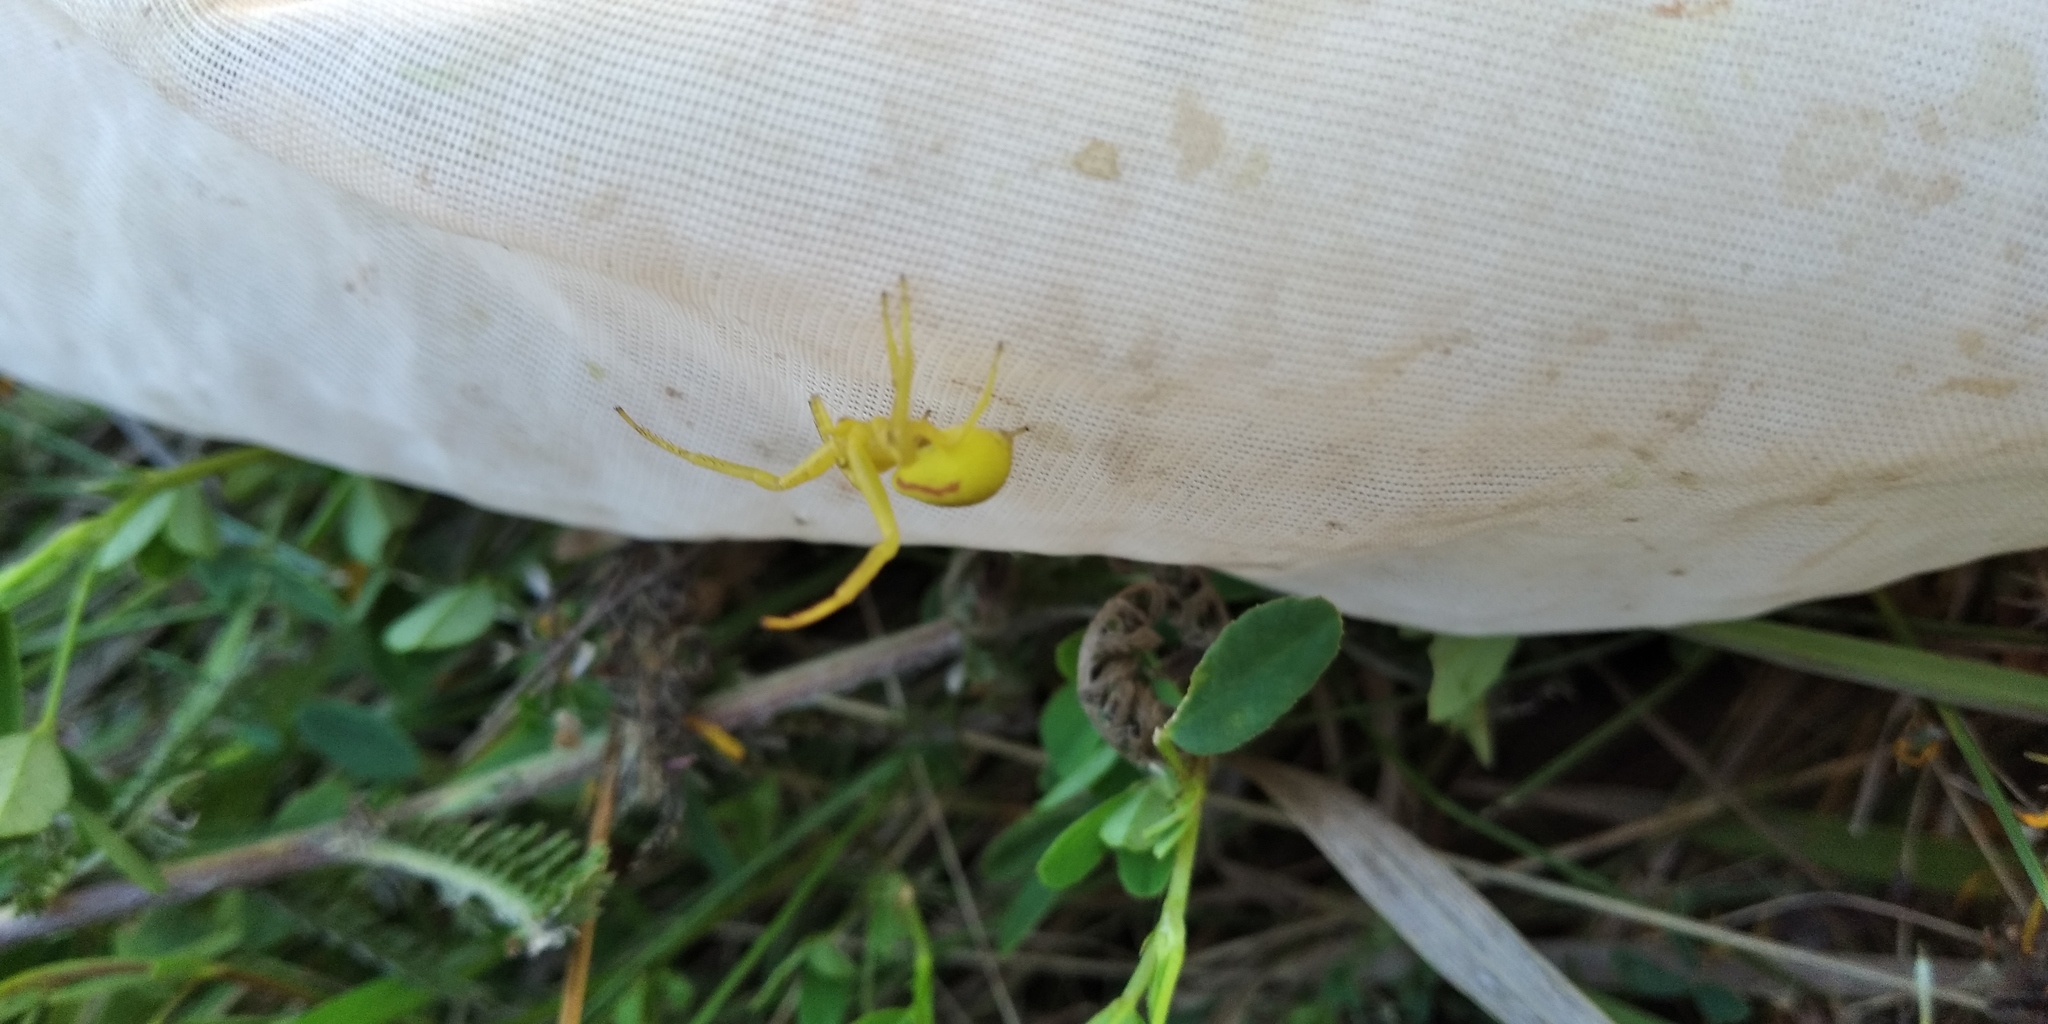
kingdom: Animalia
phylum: Arthropoda
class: Arachnida
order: Araneae
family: Thomisidae
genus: Misumena
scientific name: Misumena vatia
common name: Goldenrod crab spider
